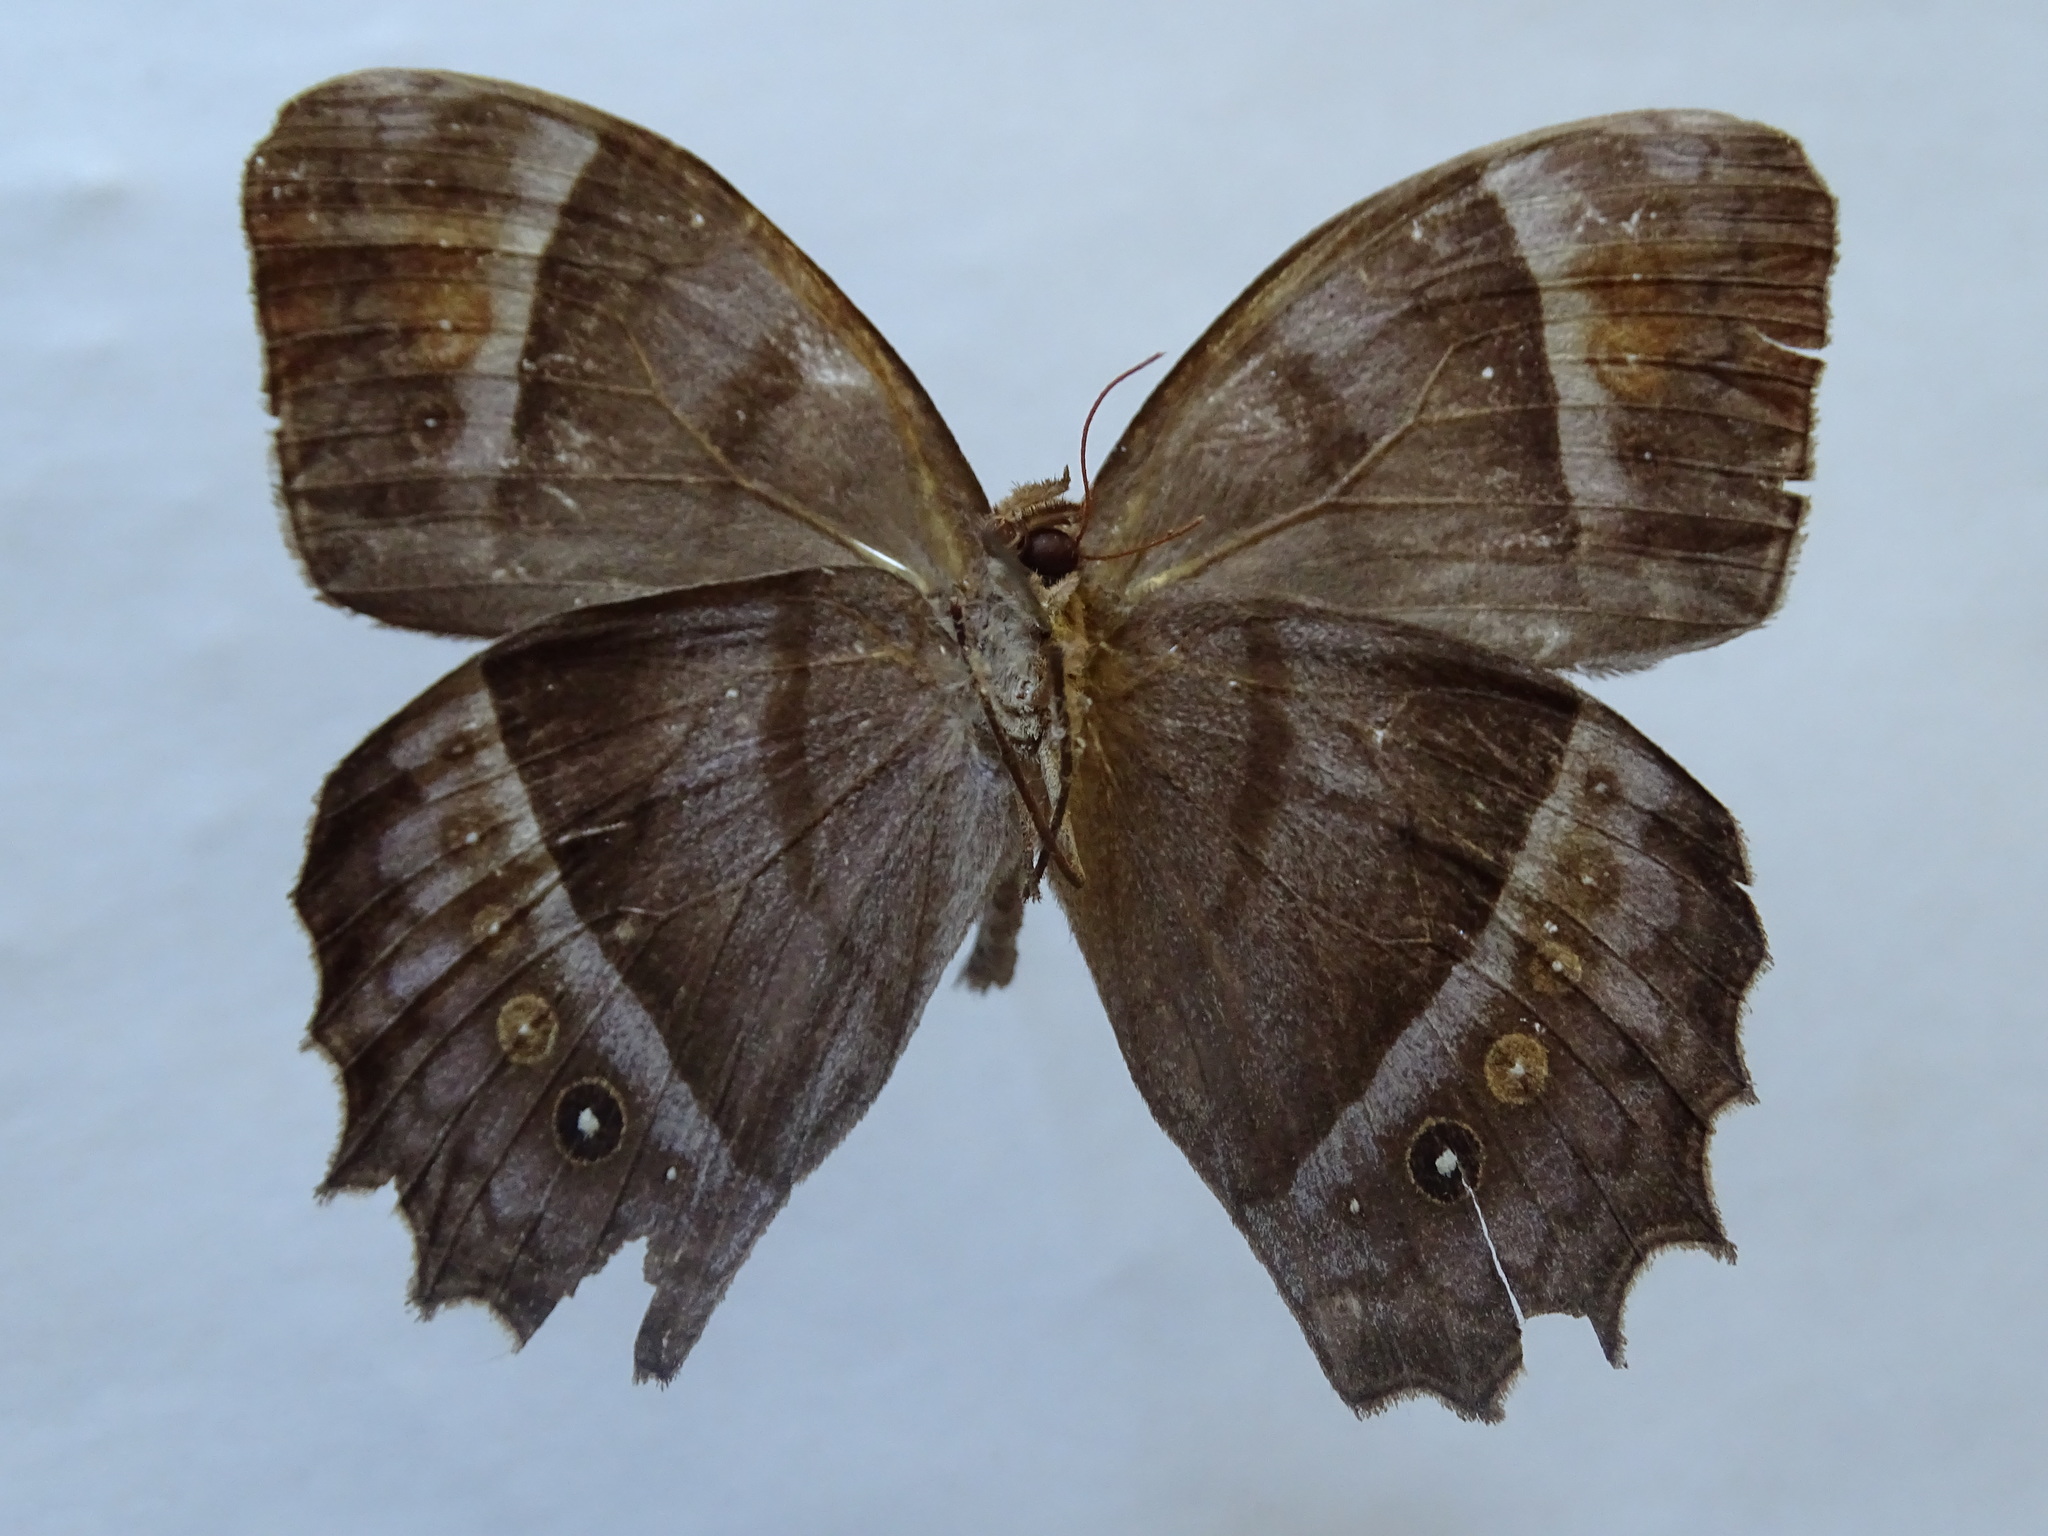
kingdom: Animalia
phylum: Arthropoda
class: Insecta
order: Lepidoptera
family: Nymphalidae
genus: Taygetis
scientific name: Taygetis andromeda
